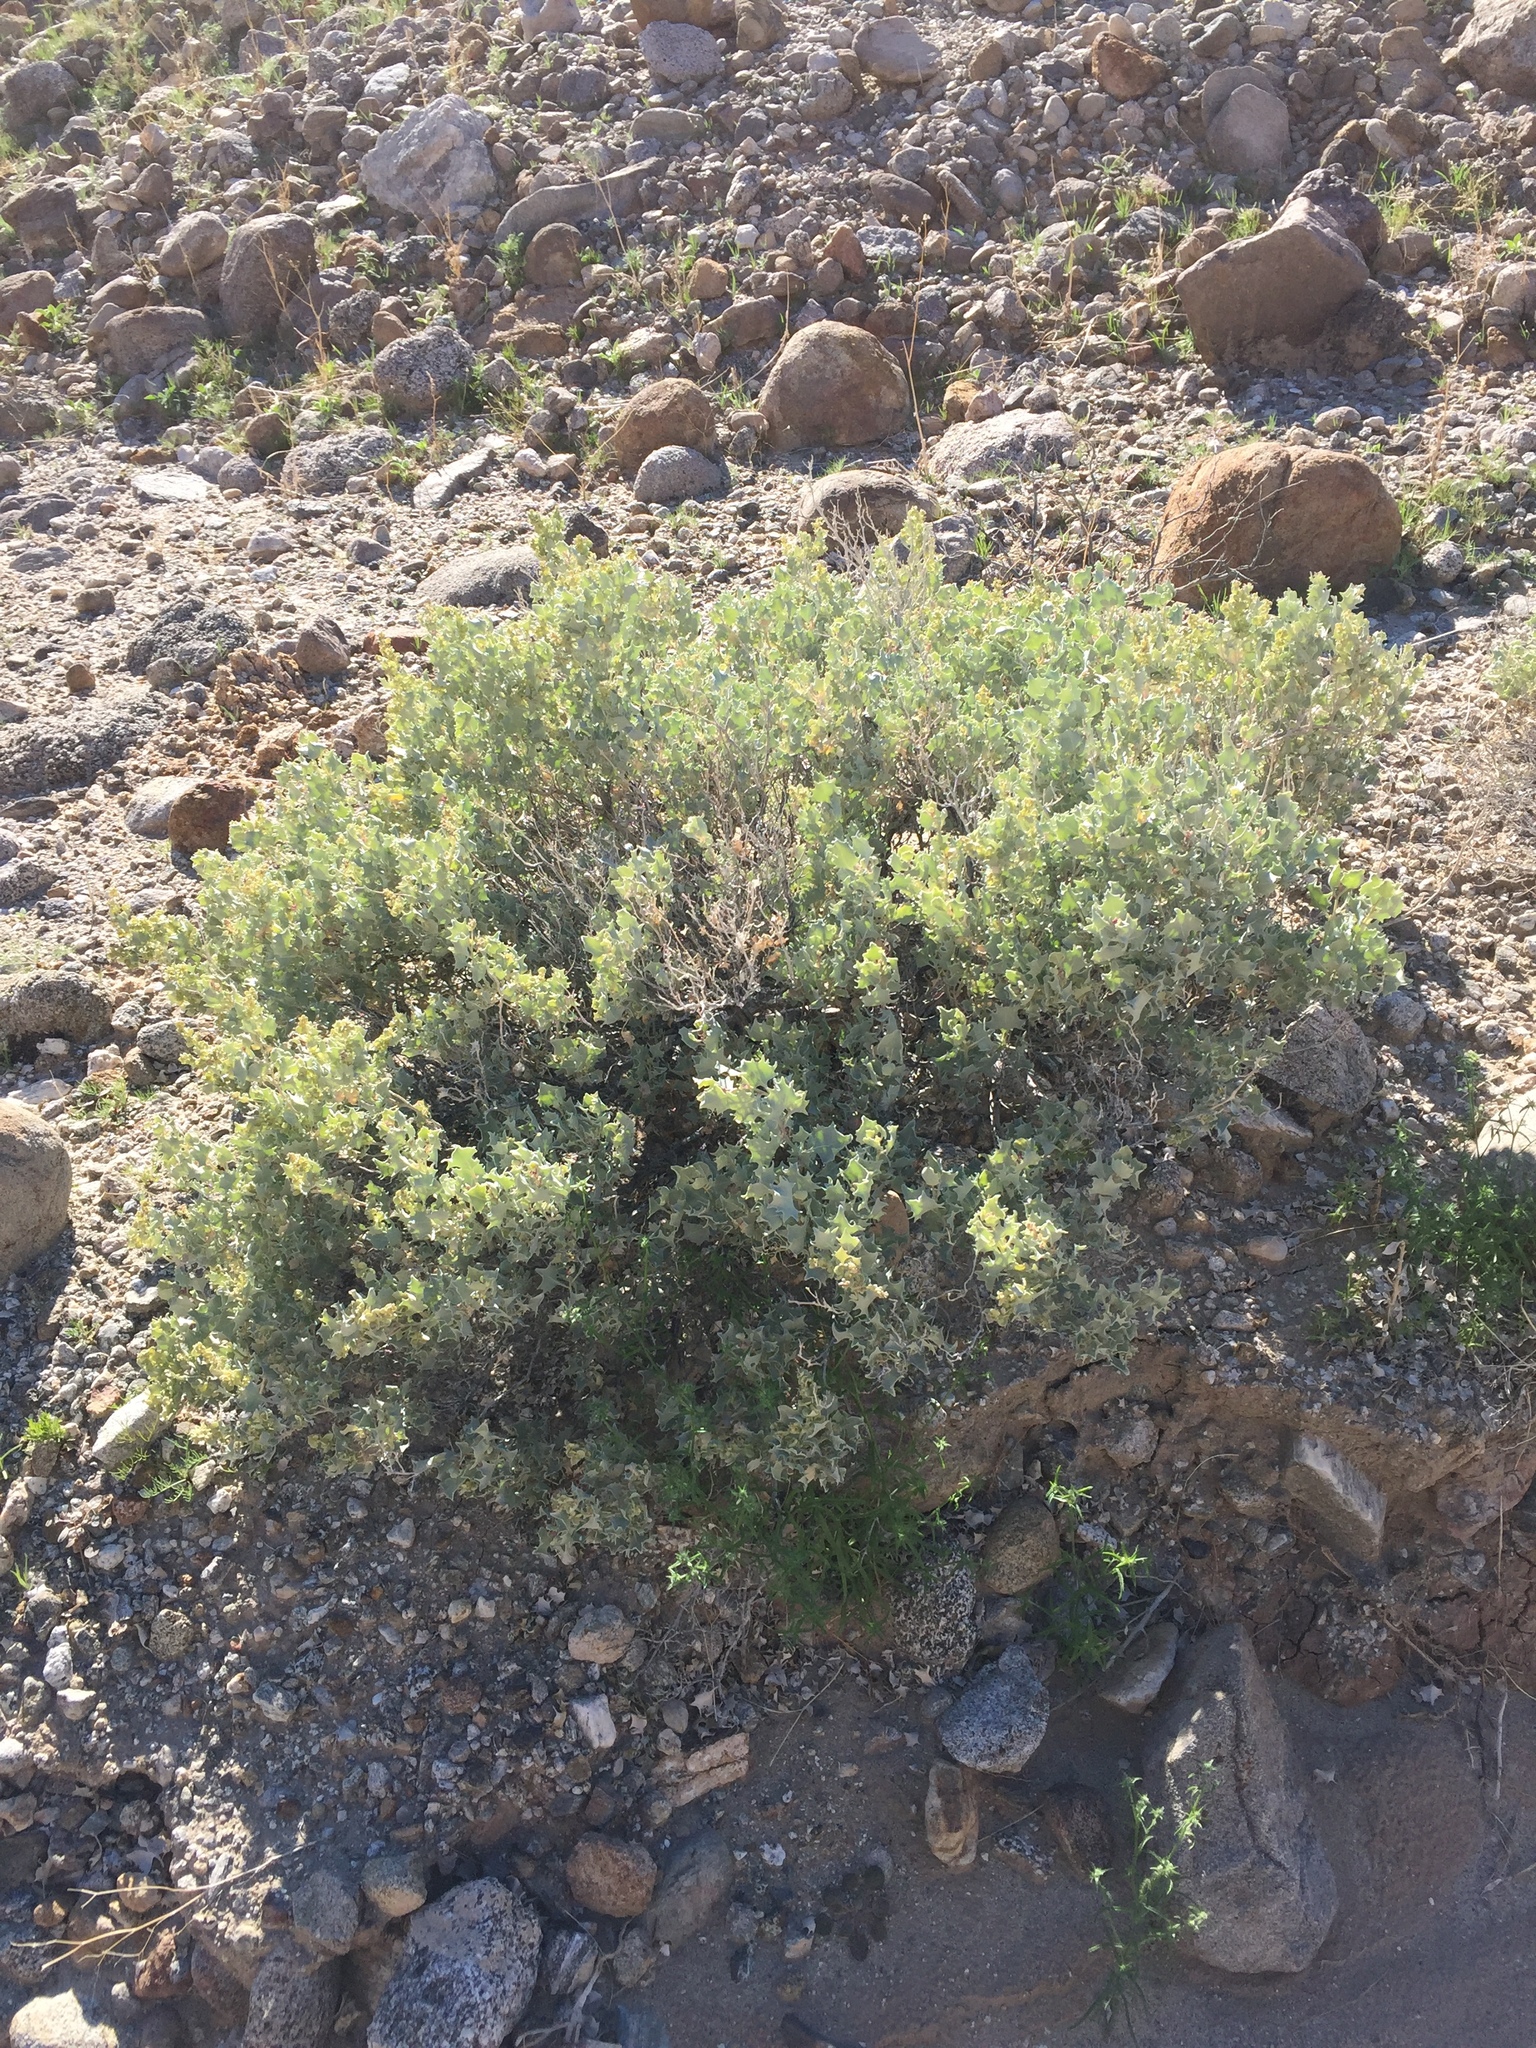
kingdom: Plantae
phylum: Tracheophyta
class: Magnoliopsida
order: Caryophyllales
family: Amaranthaceae
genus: Atriplex
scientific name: Atriplex hymenelytra
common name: Desert-holly
